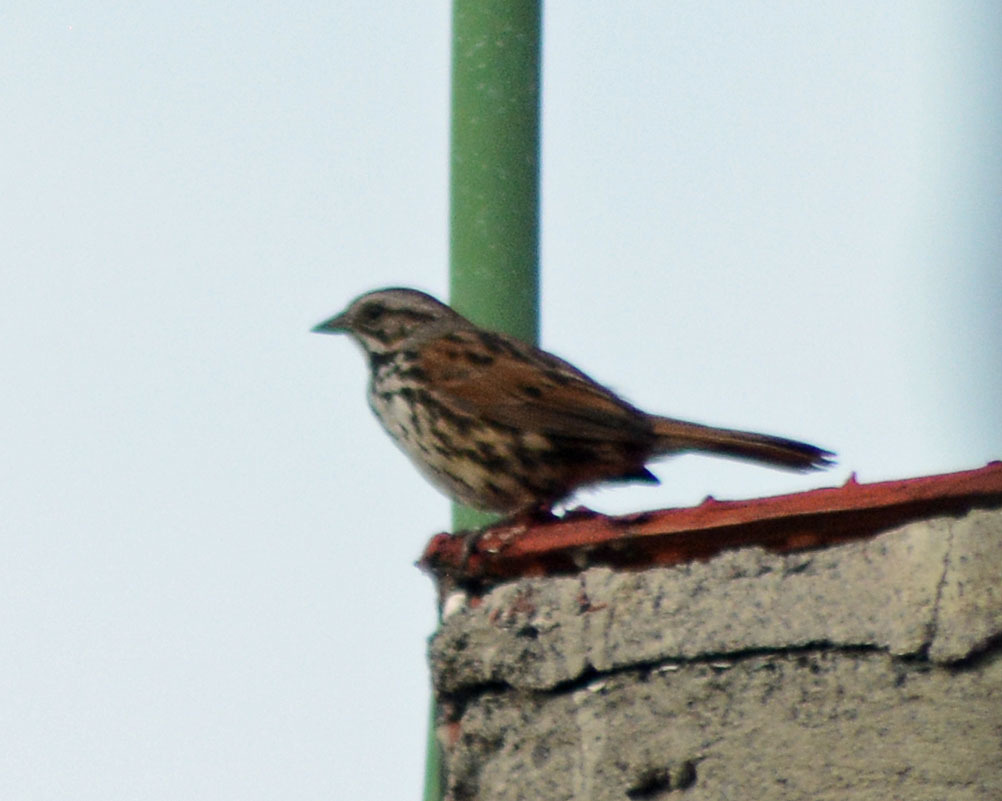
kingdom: Animalia
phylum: Chordata
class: Aves
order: Passeriformes
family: Passerellidae
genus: Melospiza
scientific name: Melospiza melodia
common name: Song sparrow
